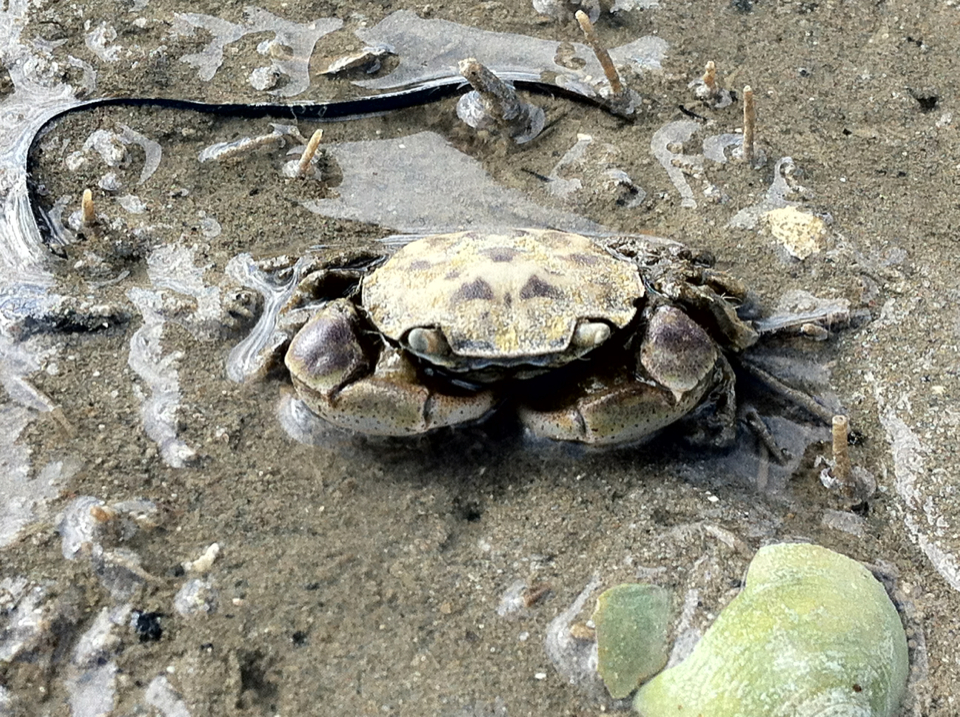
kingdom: Animalia
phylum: Arthropoda
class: Malacostraca
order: Decapoda
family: Varunidae
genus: Hemigrapsus
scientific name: Hemigrapsus crenulatus
